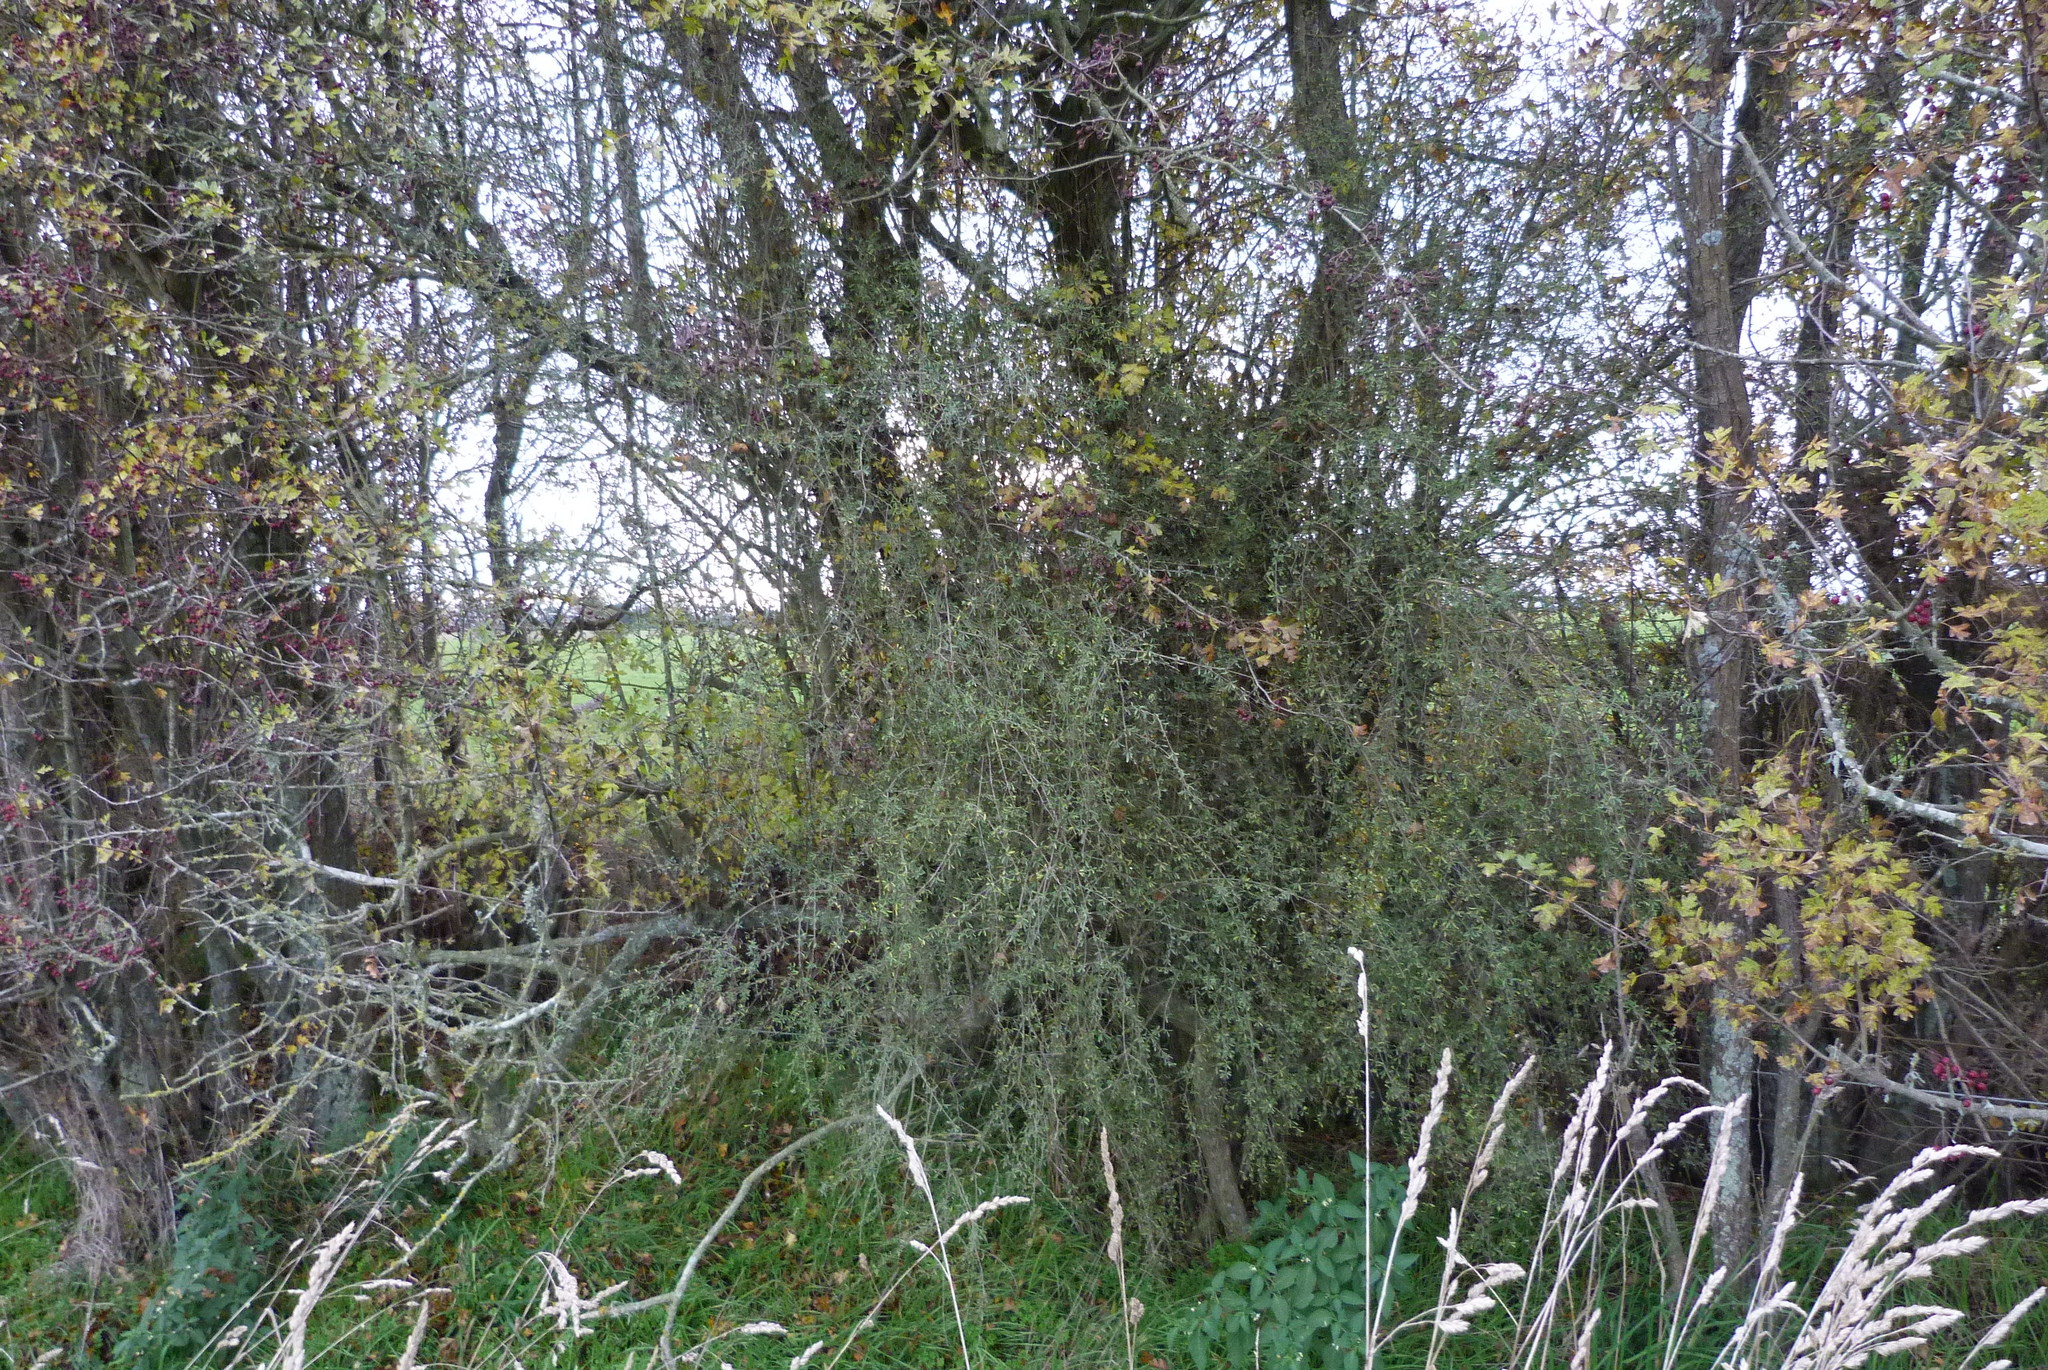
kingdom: Plantae
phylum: Tracheophyta
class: Magnoliopsida
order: Asterales
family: Asteraceae
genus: Olearia
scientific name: Olearia bullata
